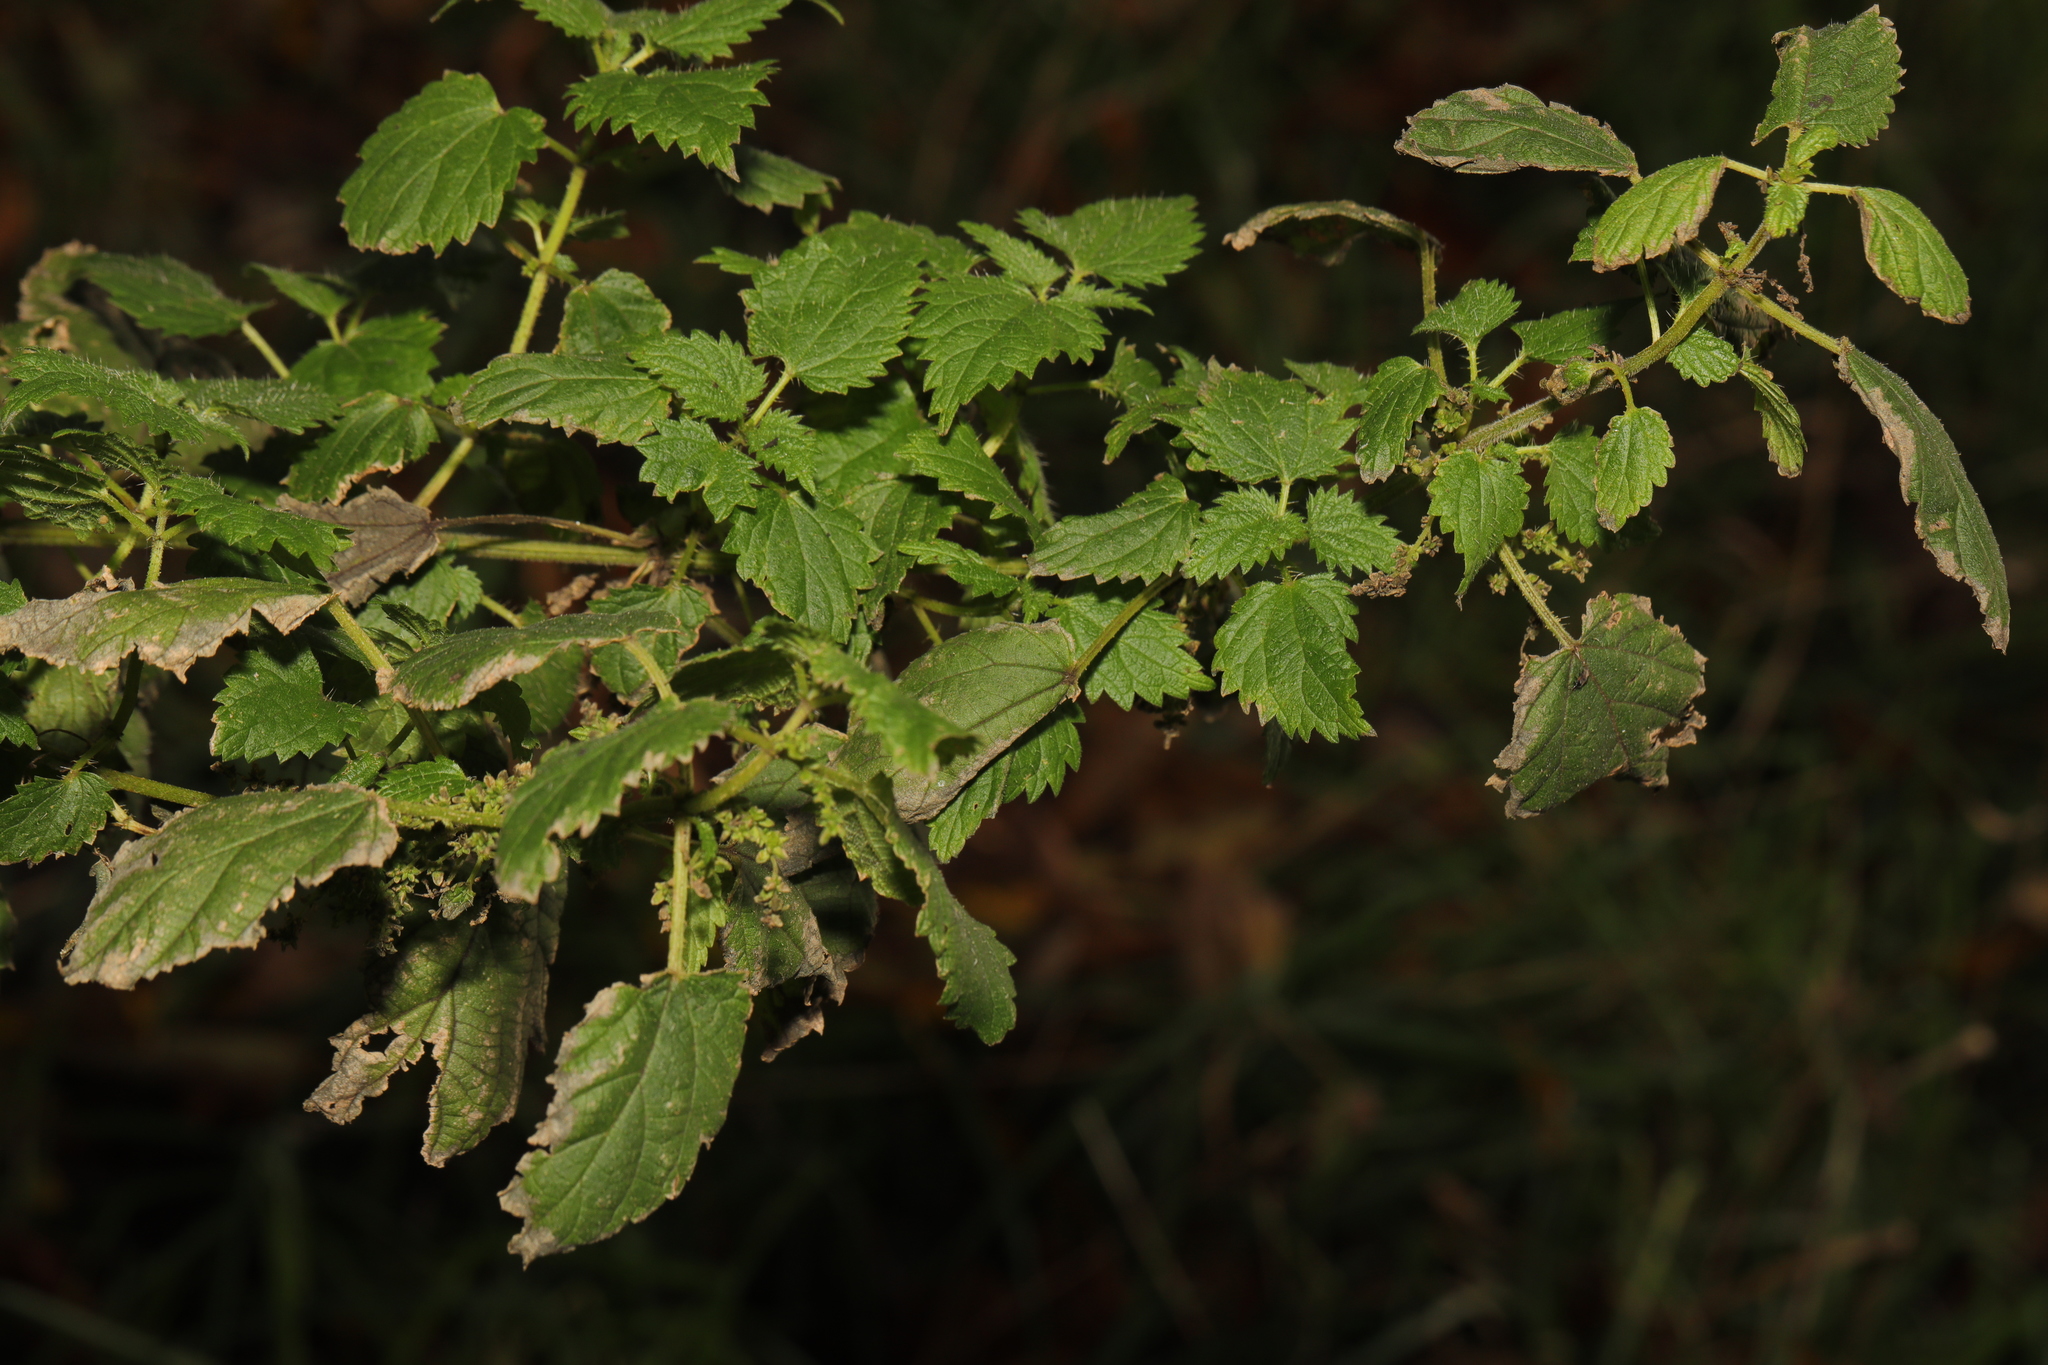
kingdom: Plantae
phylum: Tracheophyta
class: Magnoliopsida
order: Rosales
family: Urticaceae
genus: Urtica
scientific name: Urtica dioica
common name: Common nettle
